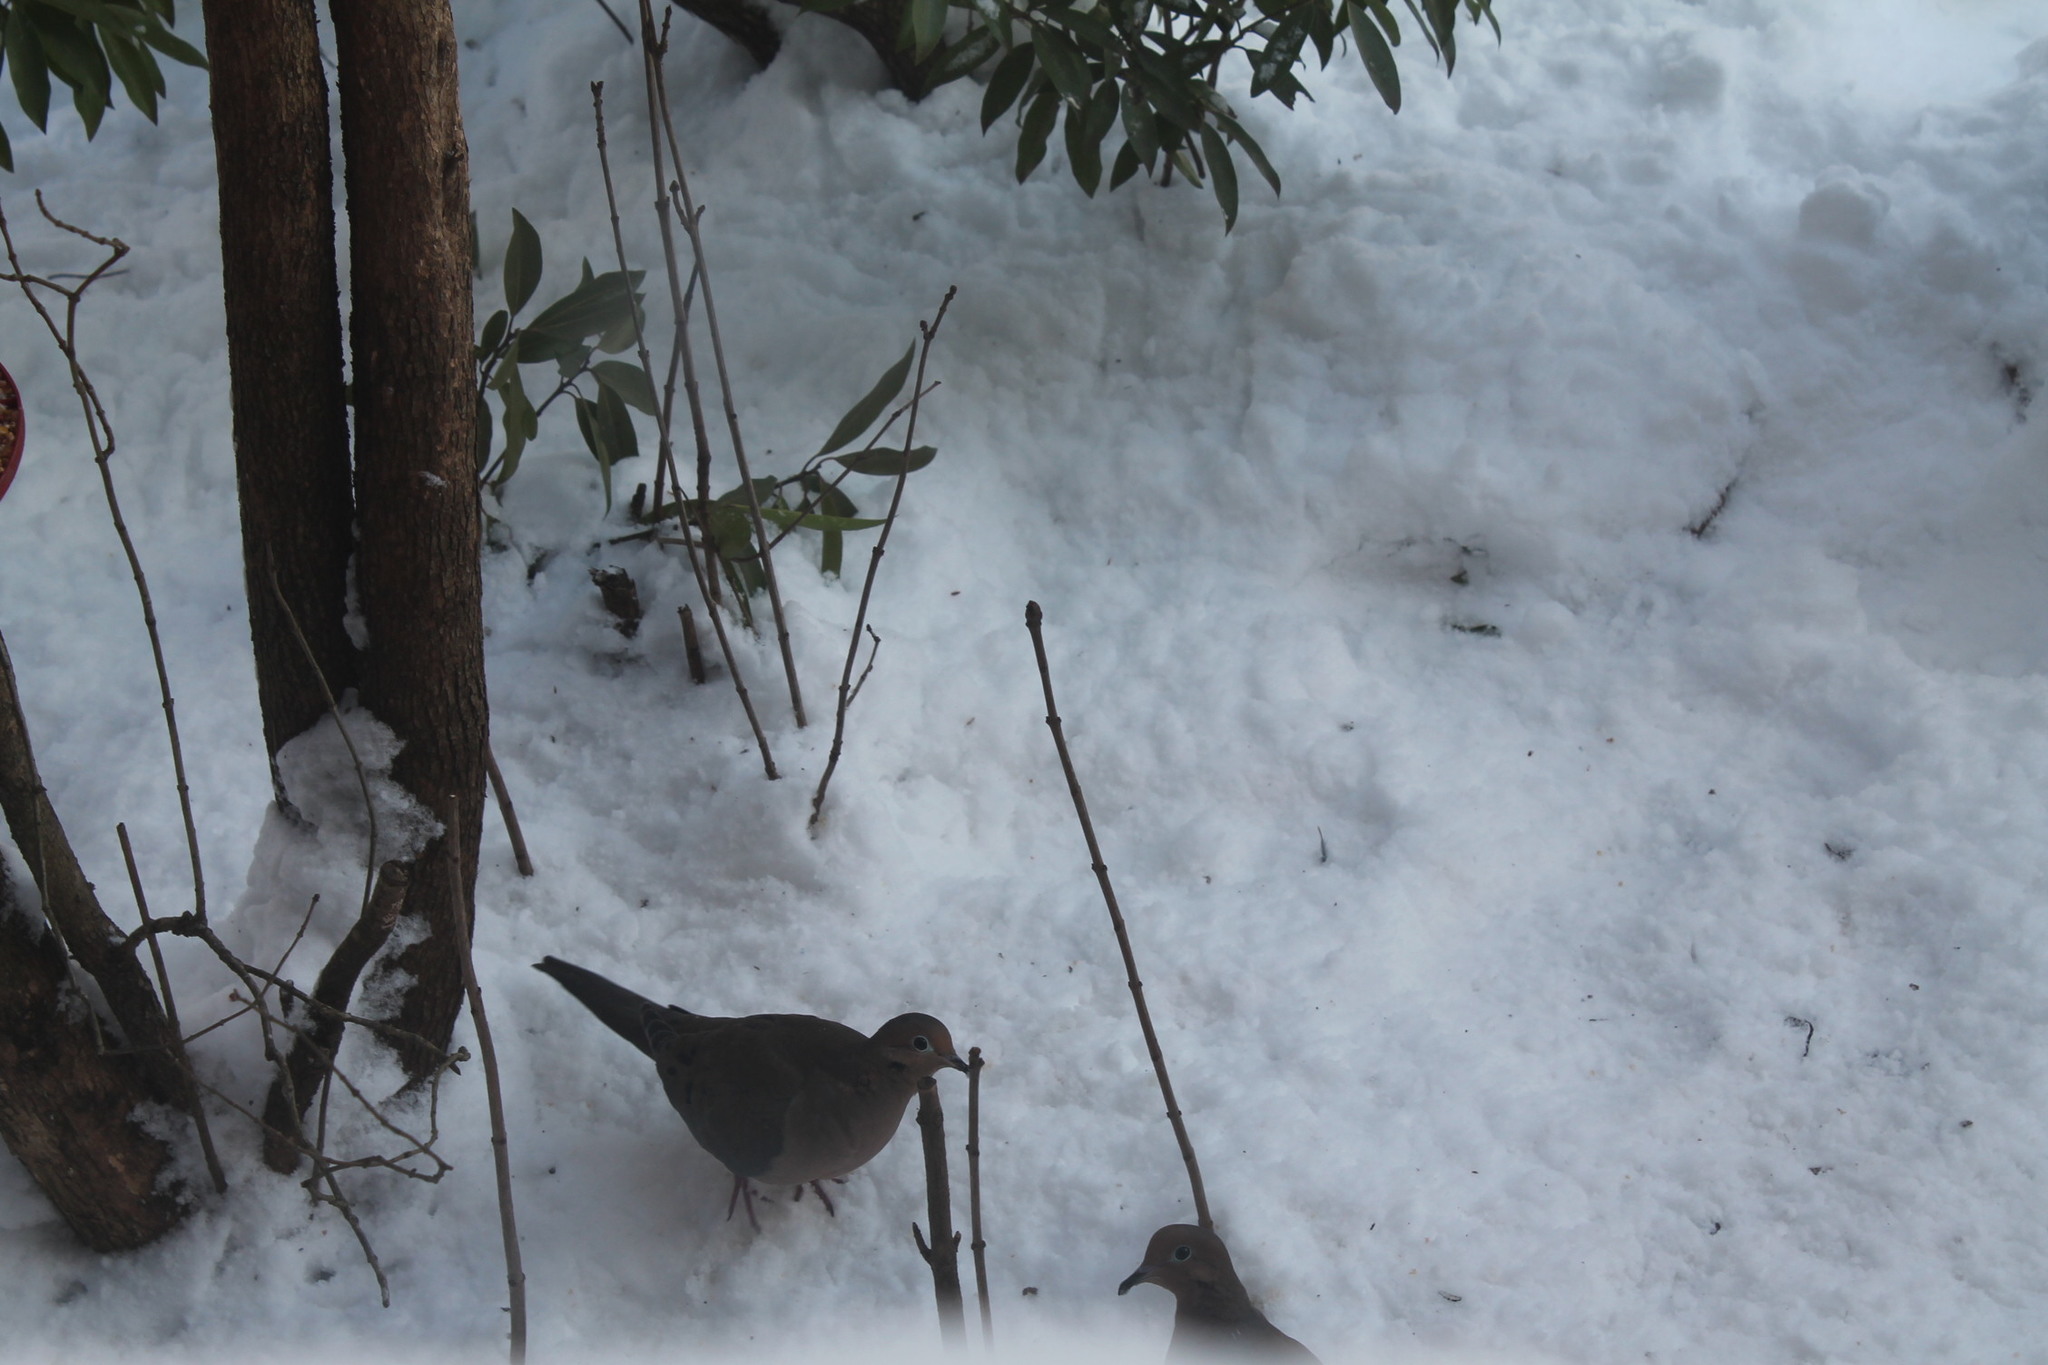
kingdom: Animalia
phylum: Chordata
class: Aves
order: Columbiformes
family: Columbidae
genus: Zenaida
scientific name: Zenaida macroura
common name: Mourning dove
